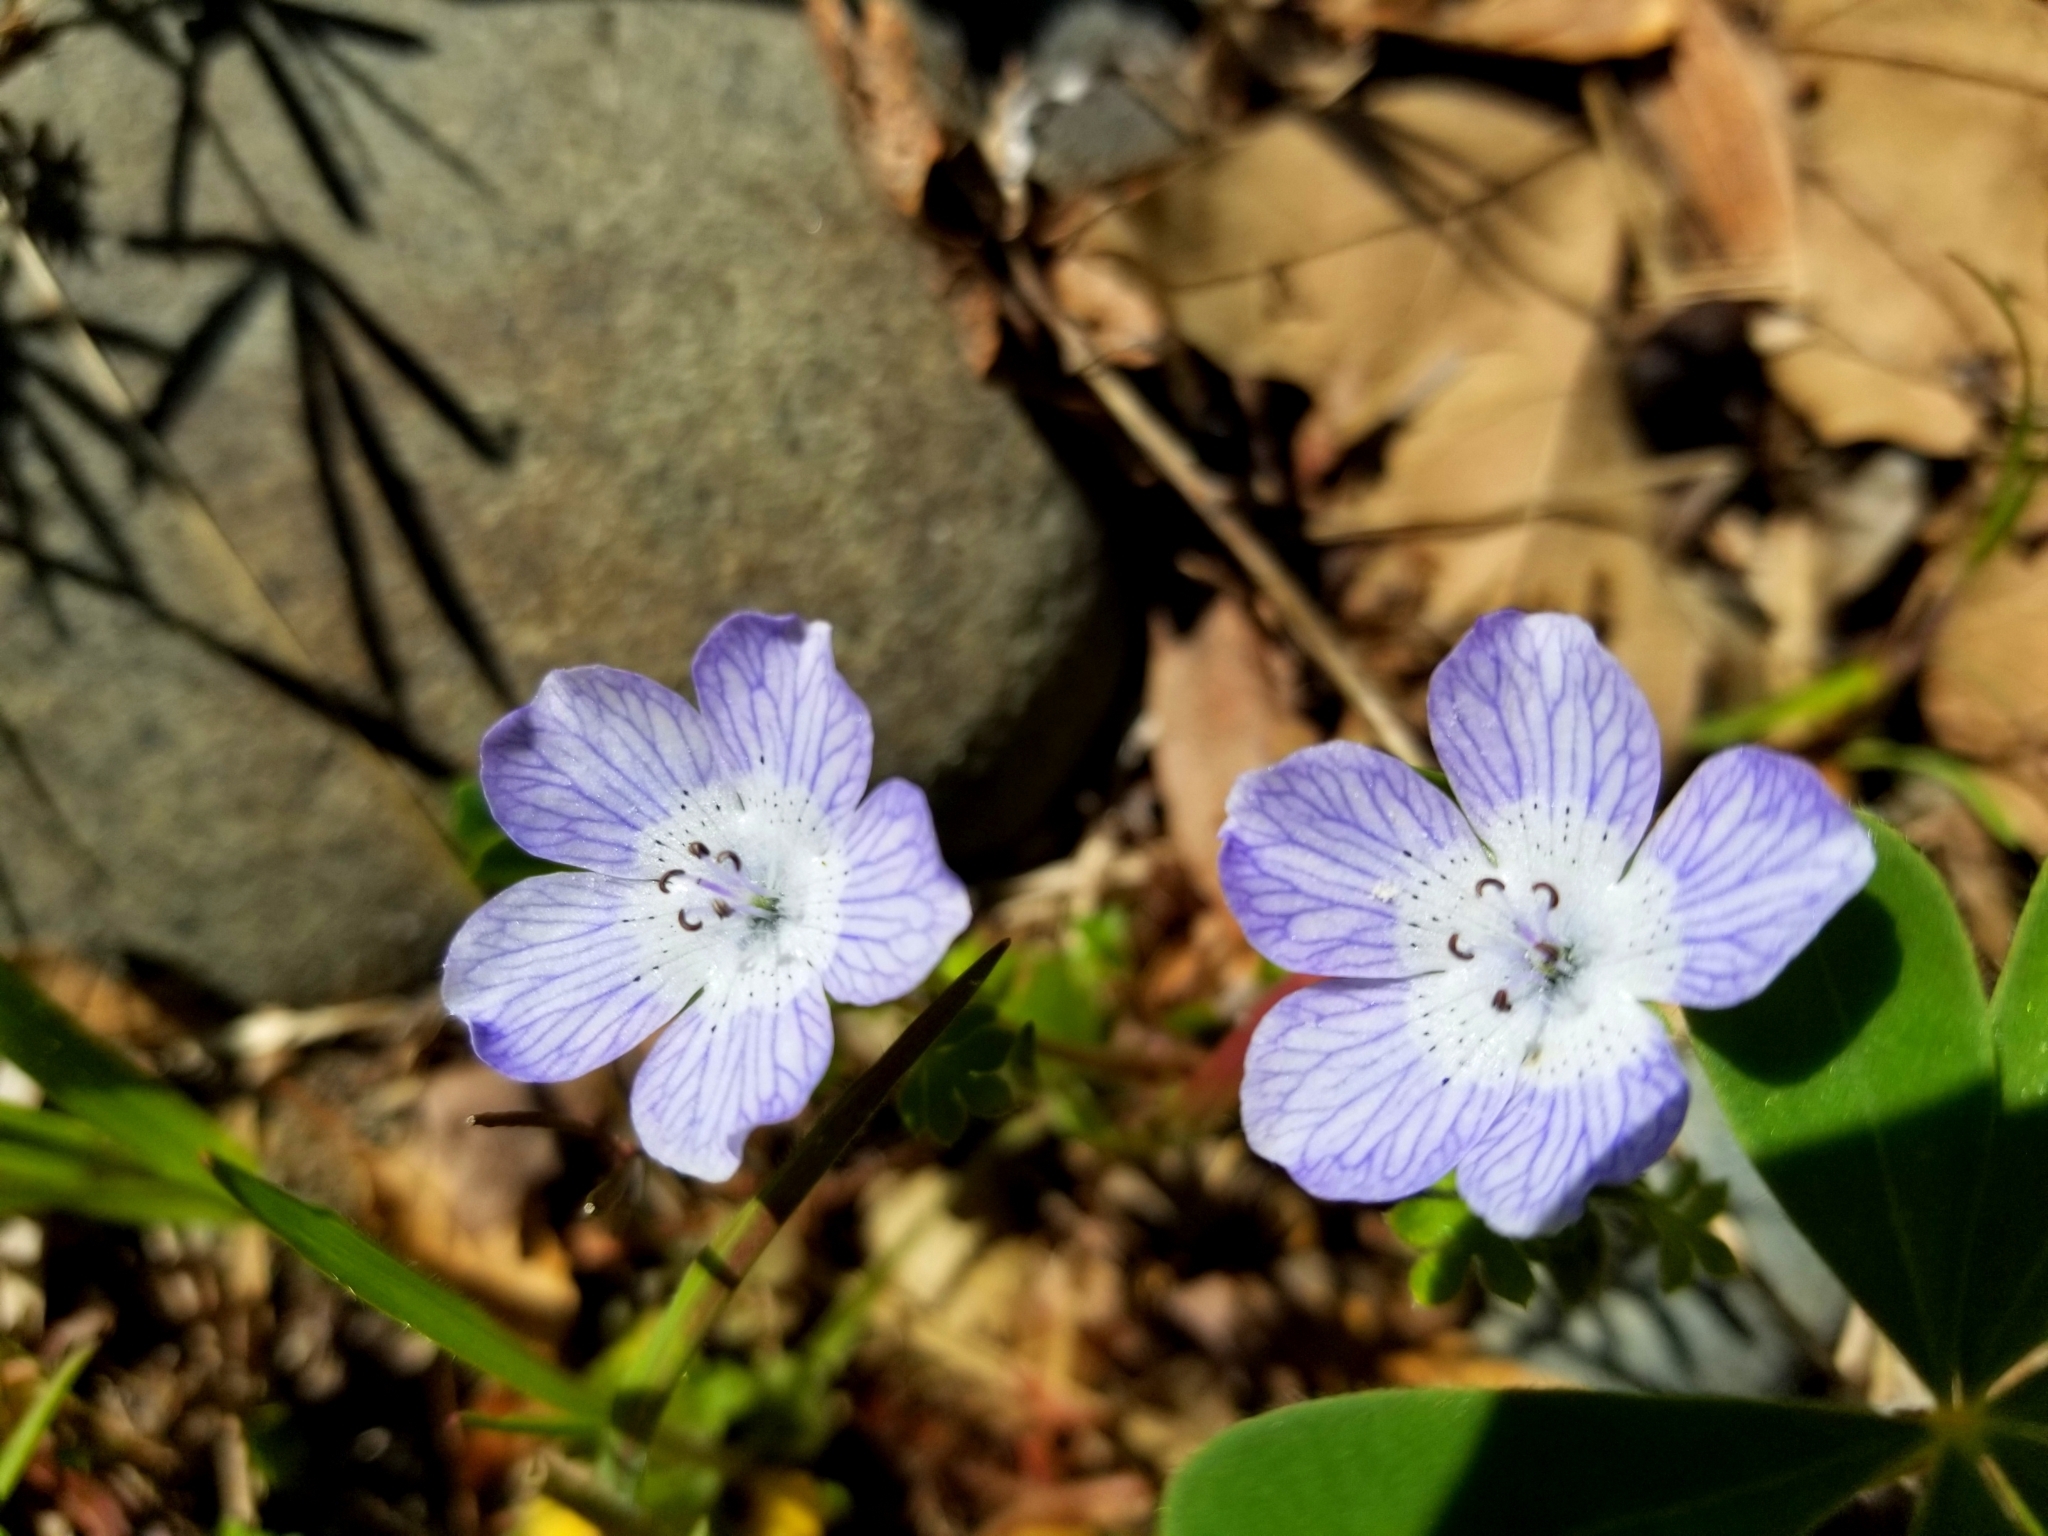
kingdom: Plantae
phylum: Tracheophyta
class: Magnoliopsida
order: Boraginales
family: Hydrophyllaceae
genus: Nemophila
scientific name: Nemophila menziesii
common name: Baby's-blue-eyes
